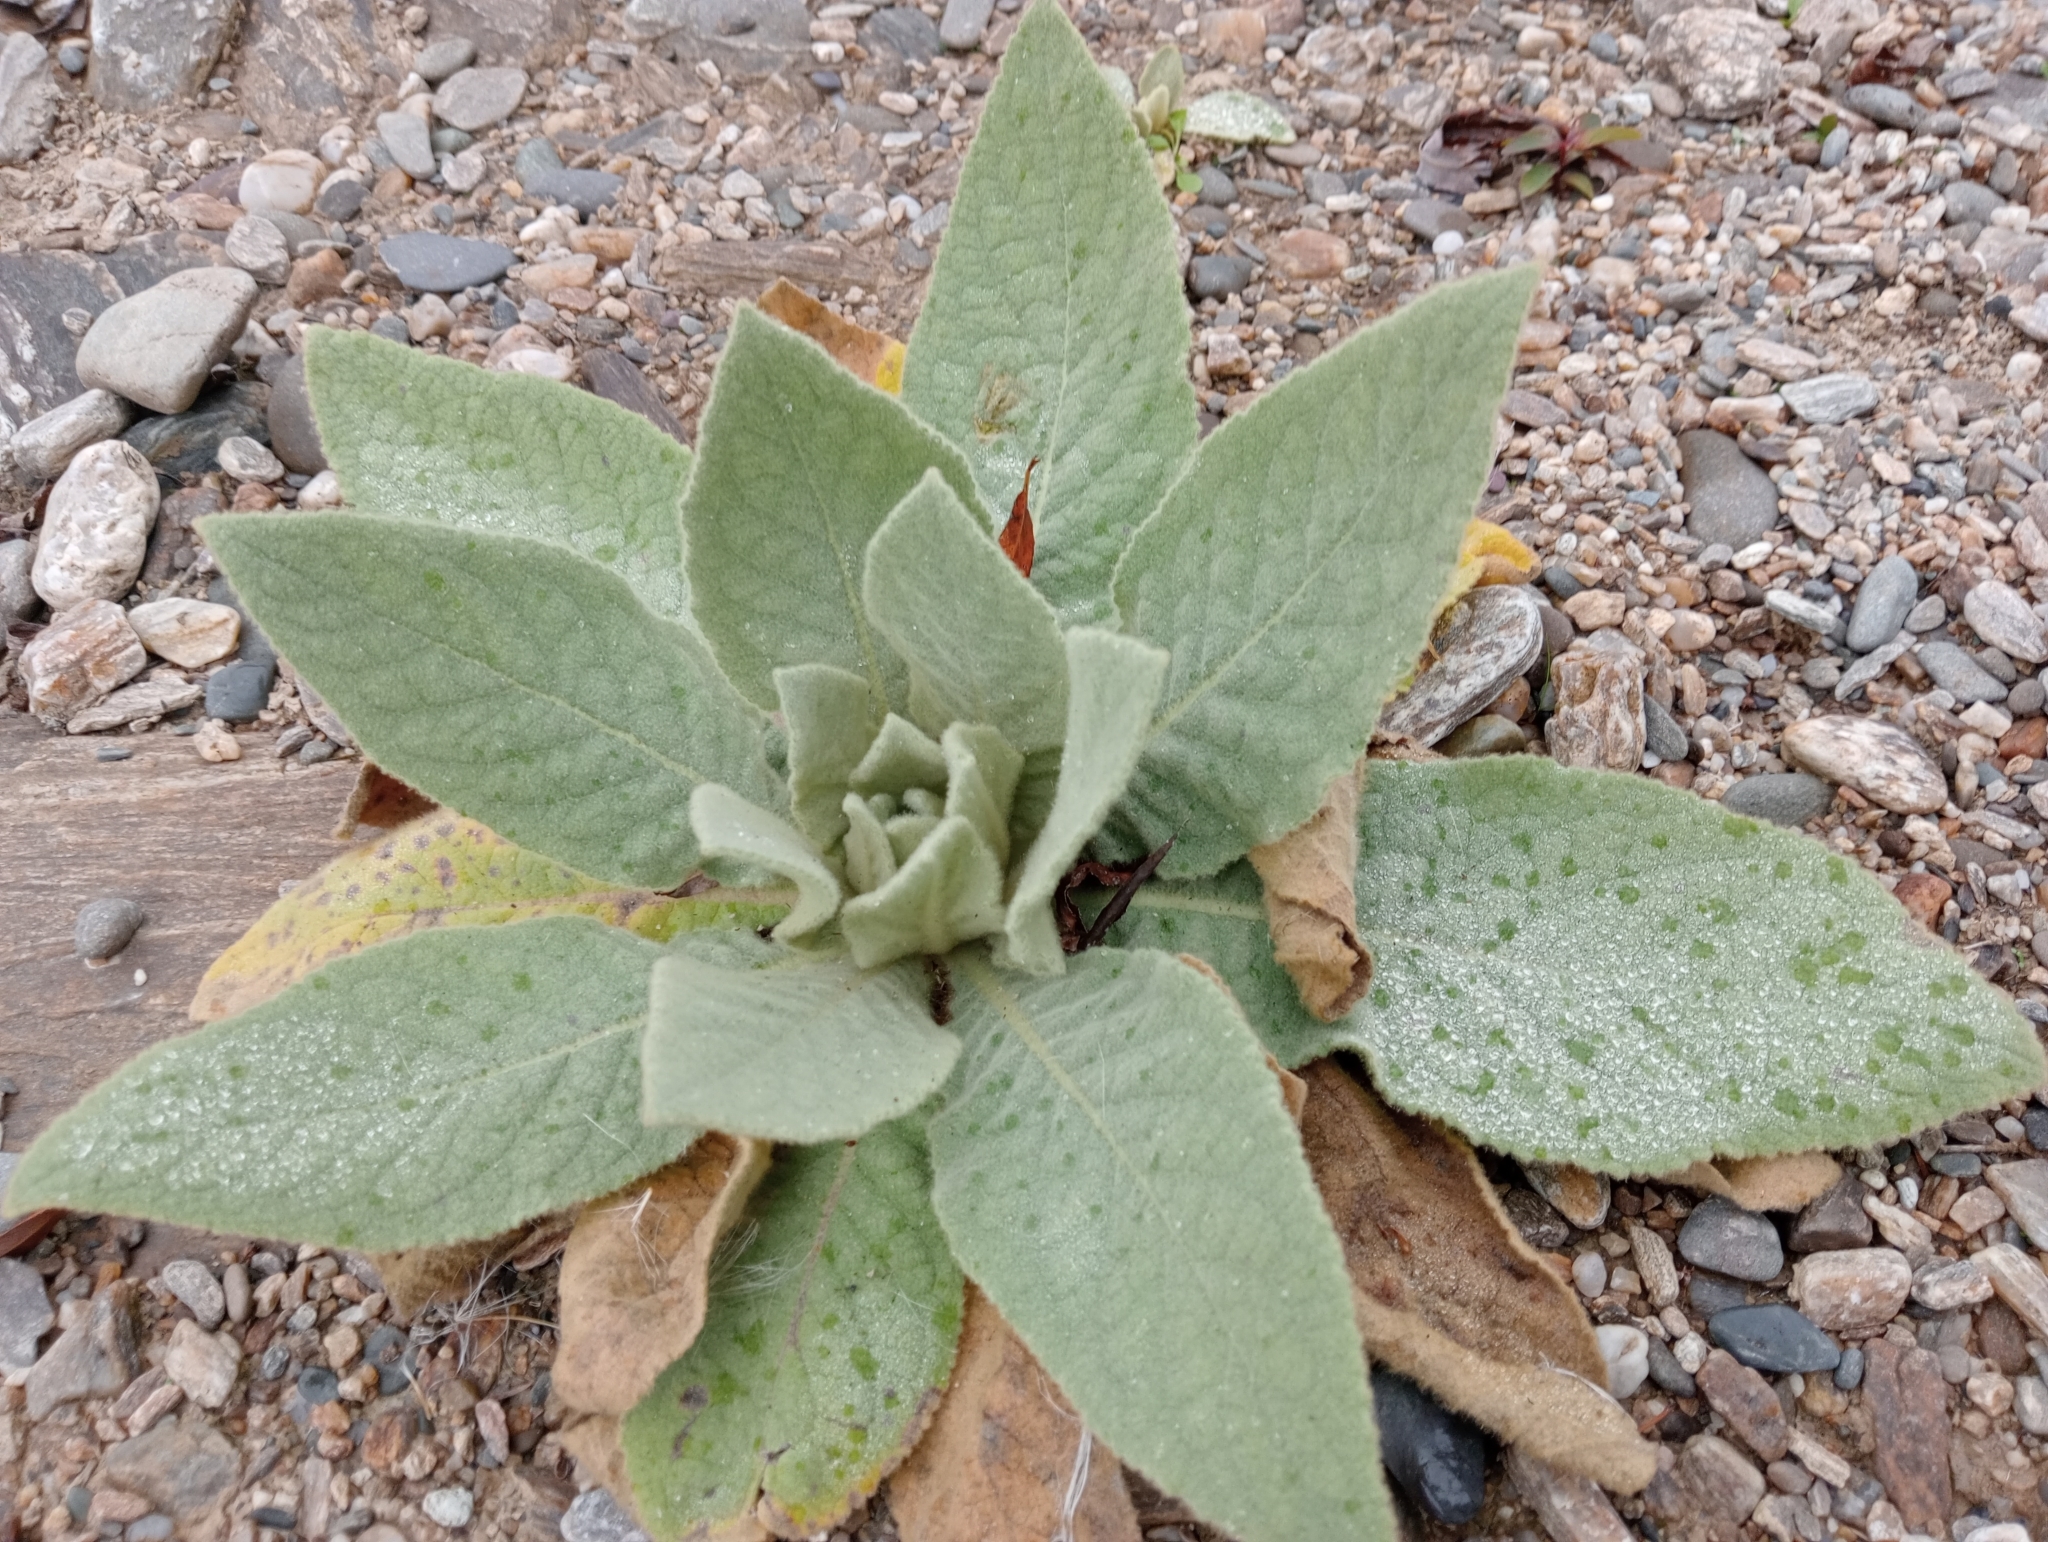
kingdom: Plantae
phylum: Tracheophyta
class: Magnoliopsida
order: Lamiales
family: Scrophulariaceae
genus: Verbascum
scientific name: Verbascum thapsus
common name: Common mullein
